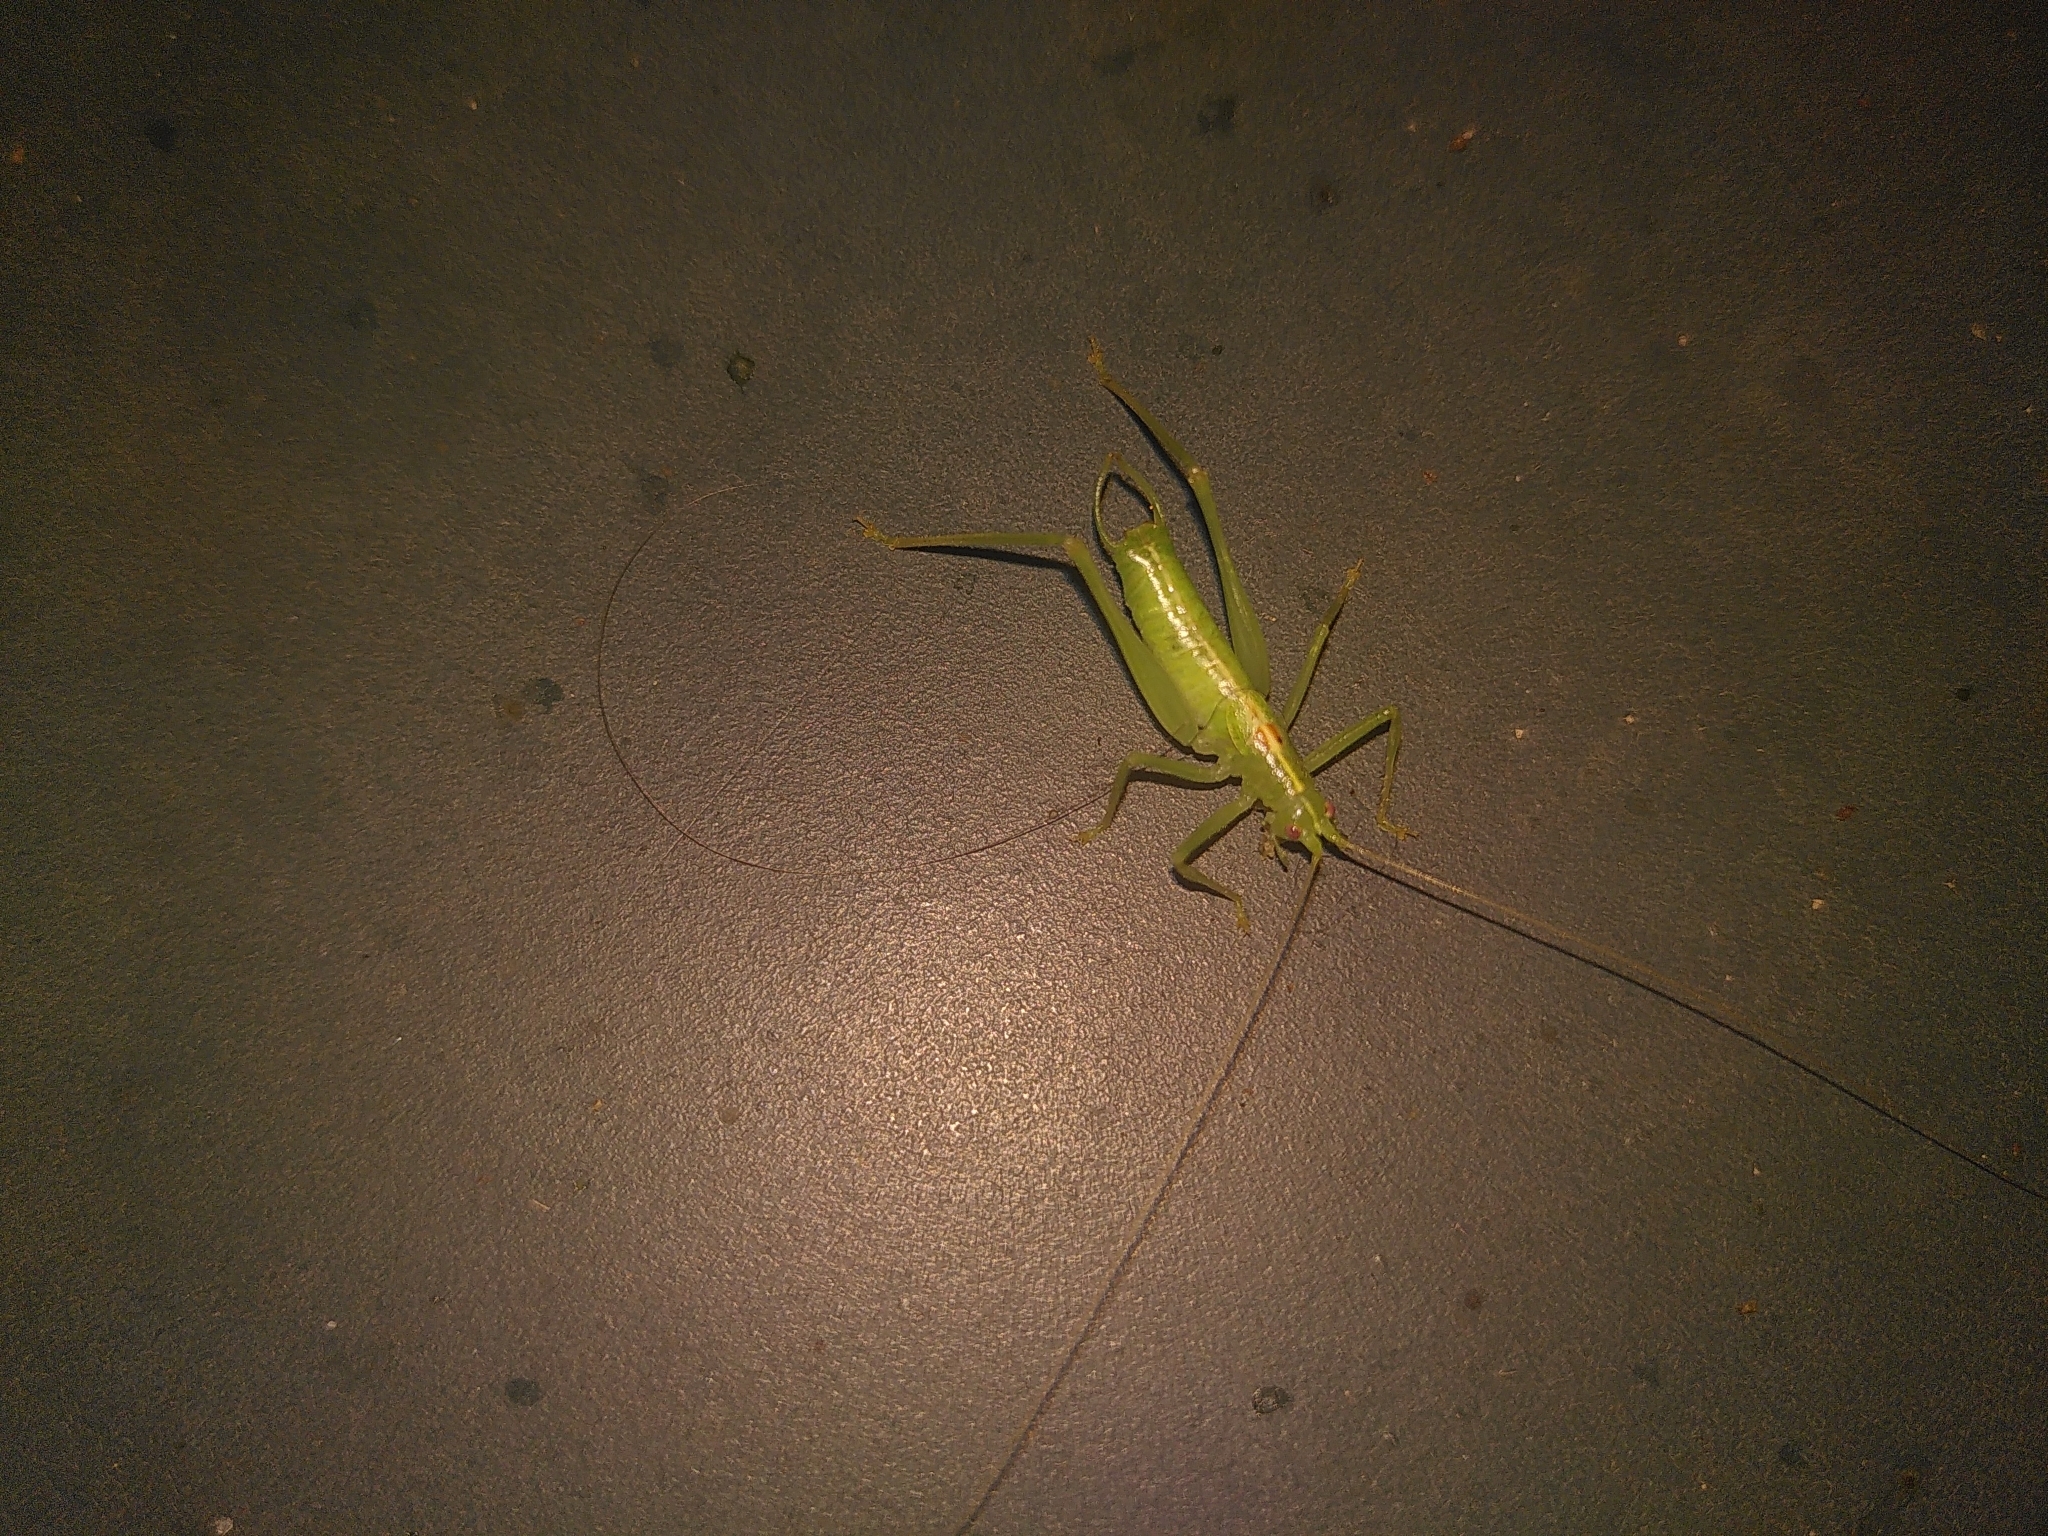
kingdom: Animalia
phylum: Arthropoda
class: Insecta
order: Orthoptera
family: Tettigoniidae
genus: Meconema
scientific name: Meconema meridionale
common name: Southern oak bush-cricket
